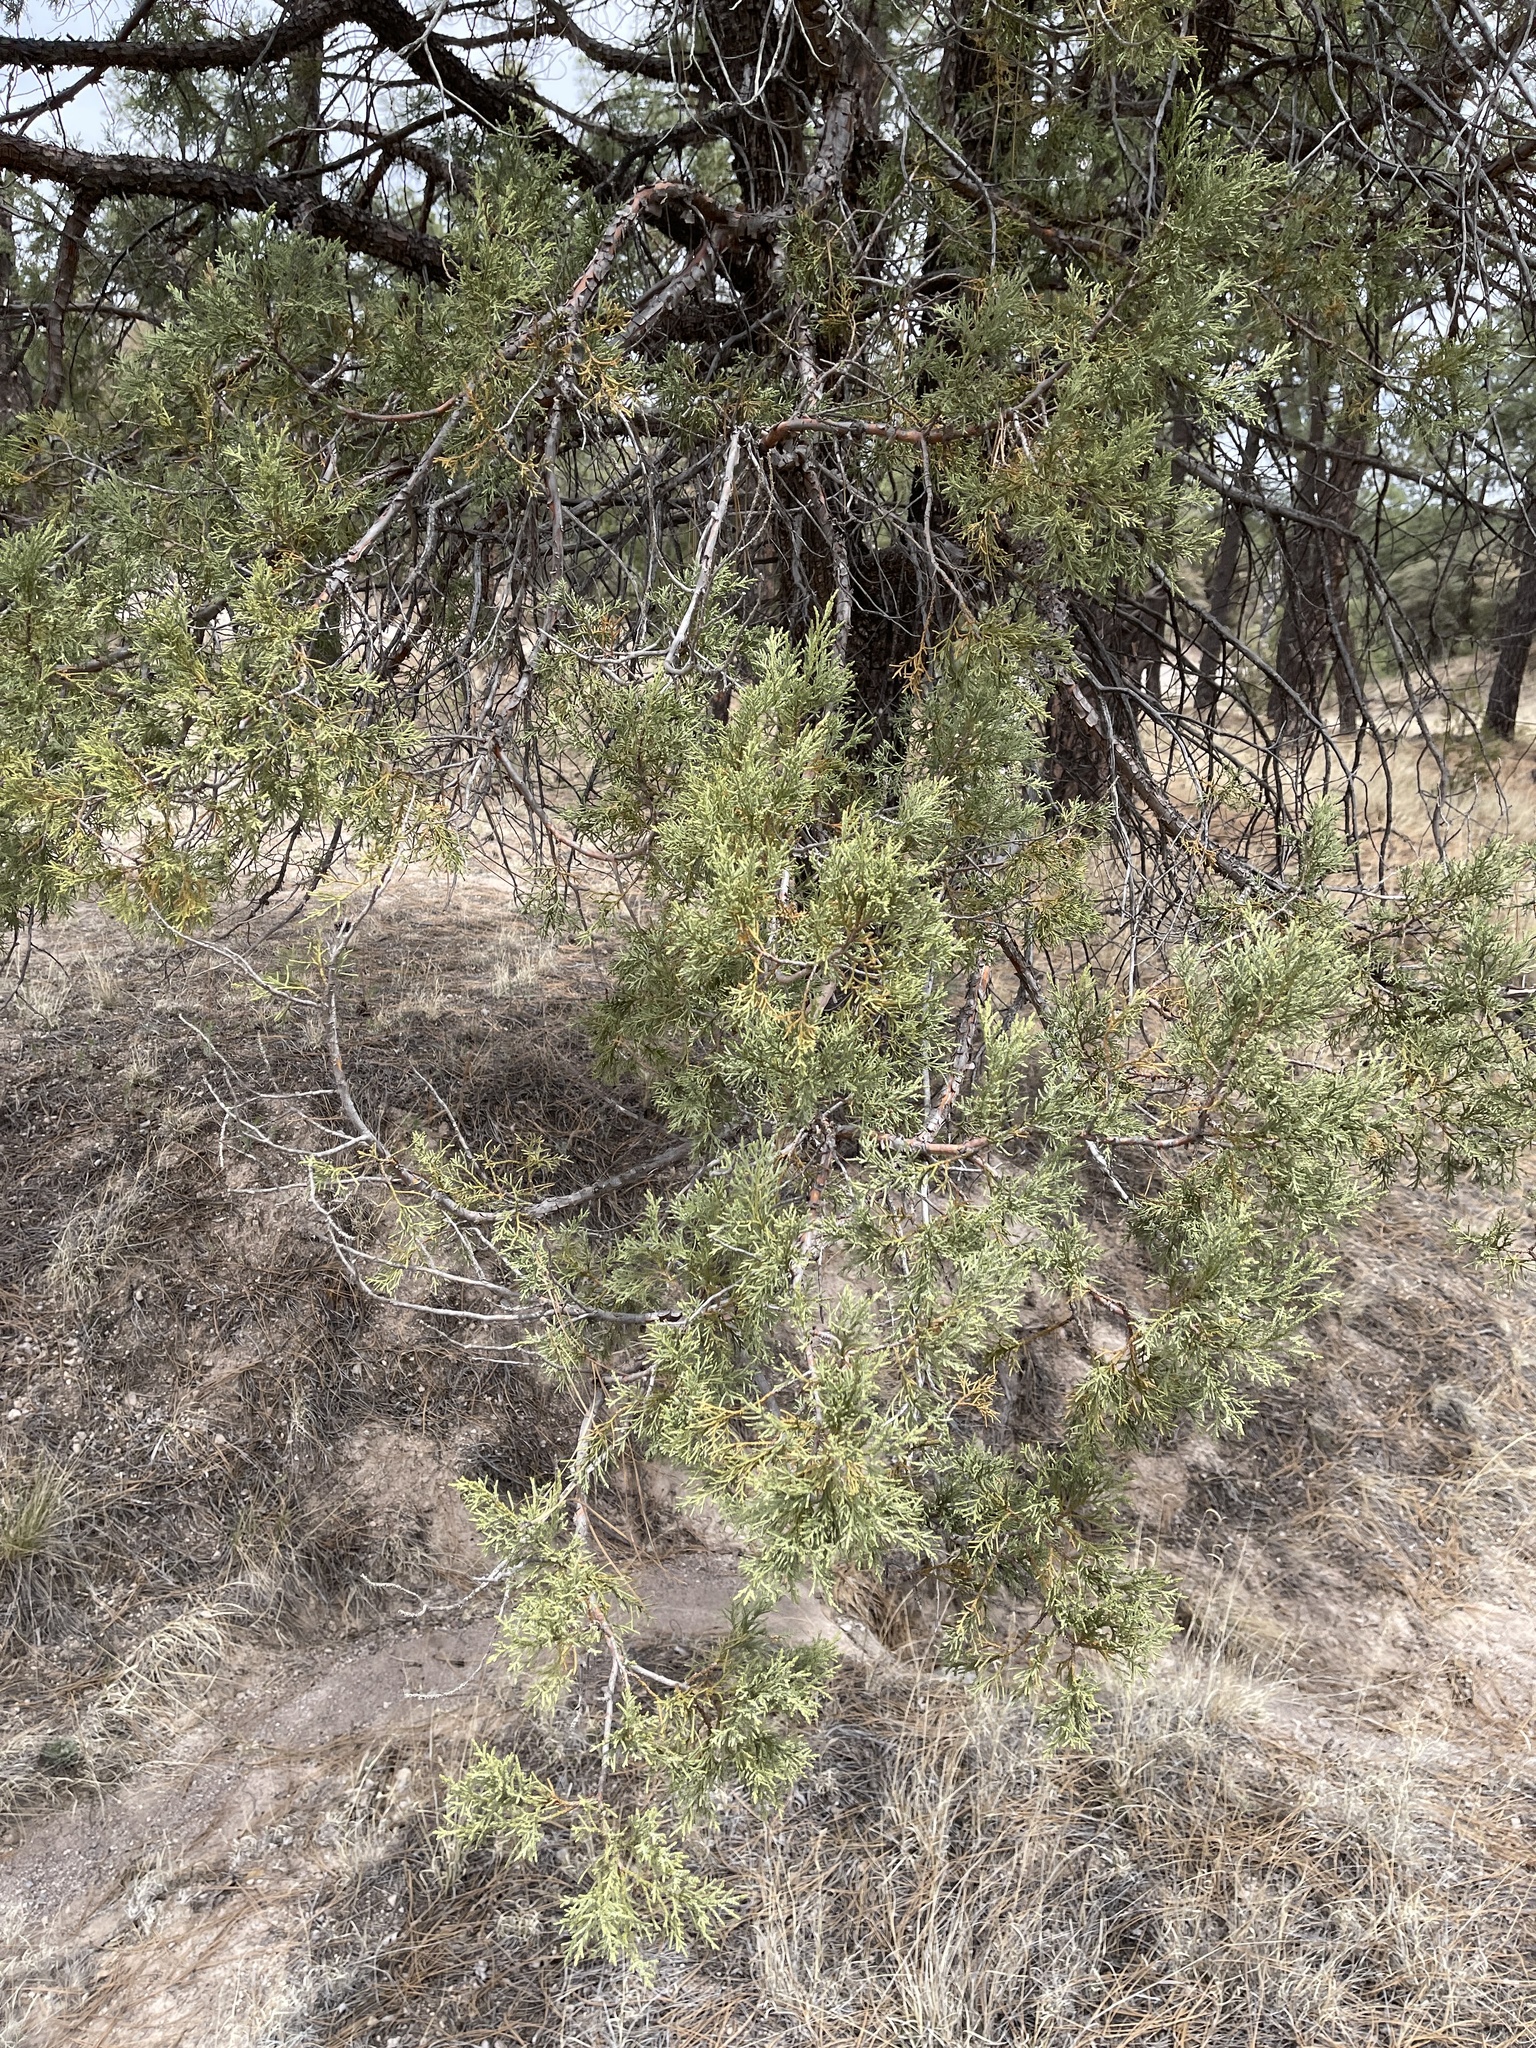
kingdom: Plantae
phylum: Tracheophyta
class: Pinopsida
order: Pinales
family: Cupressaceae
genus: Juniperus
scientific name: Juniperus deppeana
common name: Alligator juniper
